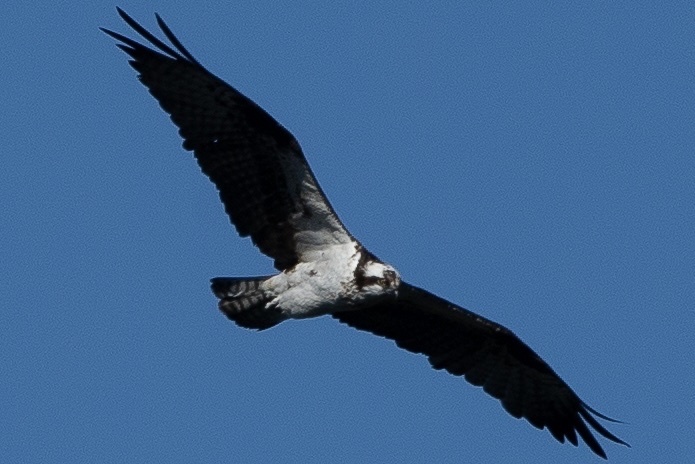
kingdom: Animalia
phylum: Chordata
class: Aves
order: Accipitriformes
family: Pandionidae
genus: Pandion
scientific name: Pandion haliaetus
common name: Osprey
